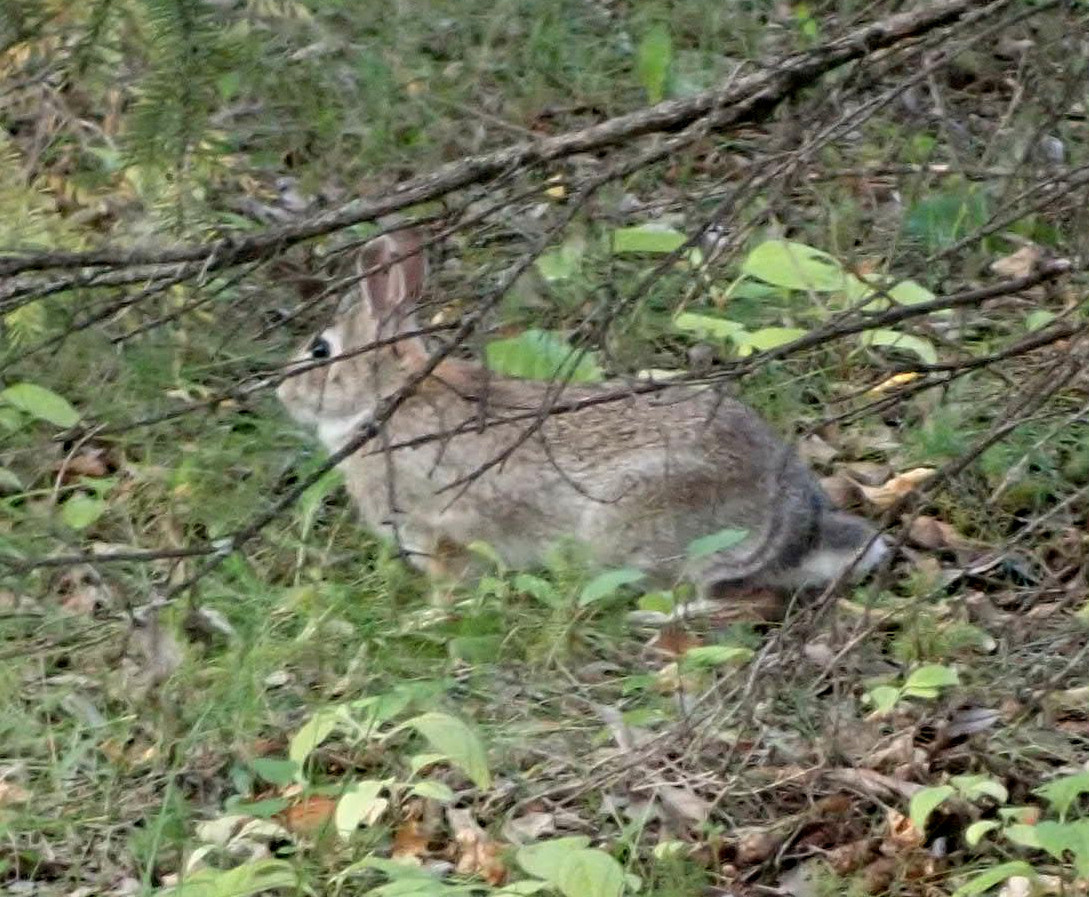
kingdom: Animalia
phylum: Chordata
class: Mammalia
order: Lagomorpha
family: Leporidae
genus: Sylvilagus
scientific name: Sylvilagus floridanus
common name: Eastern cottontail
